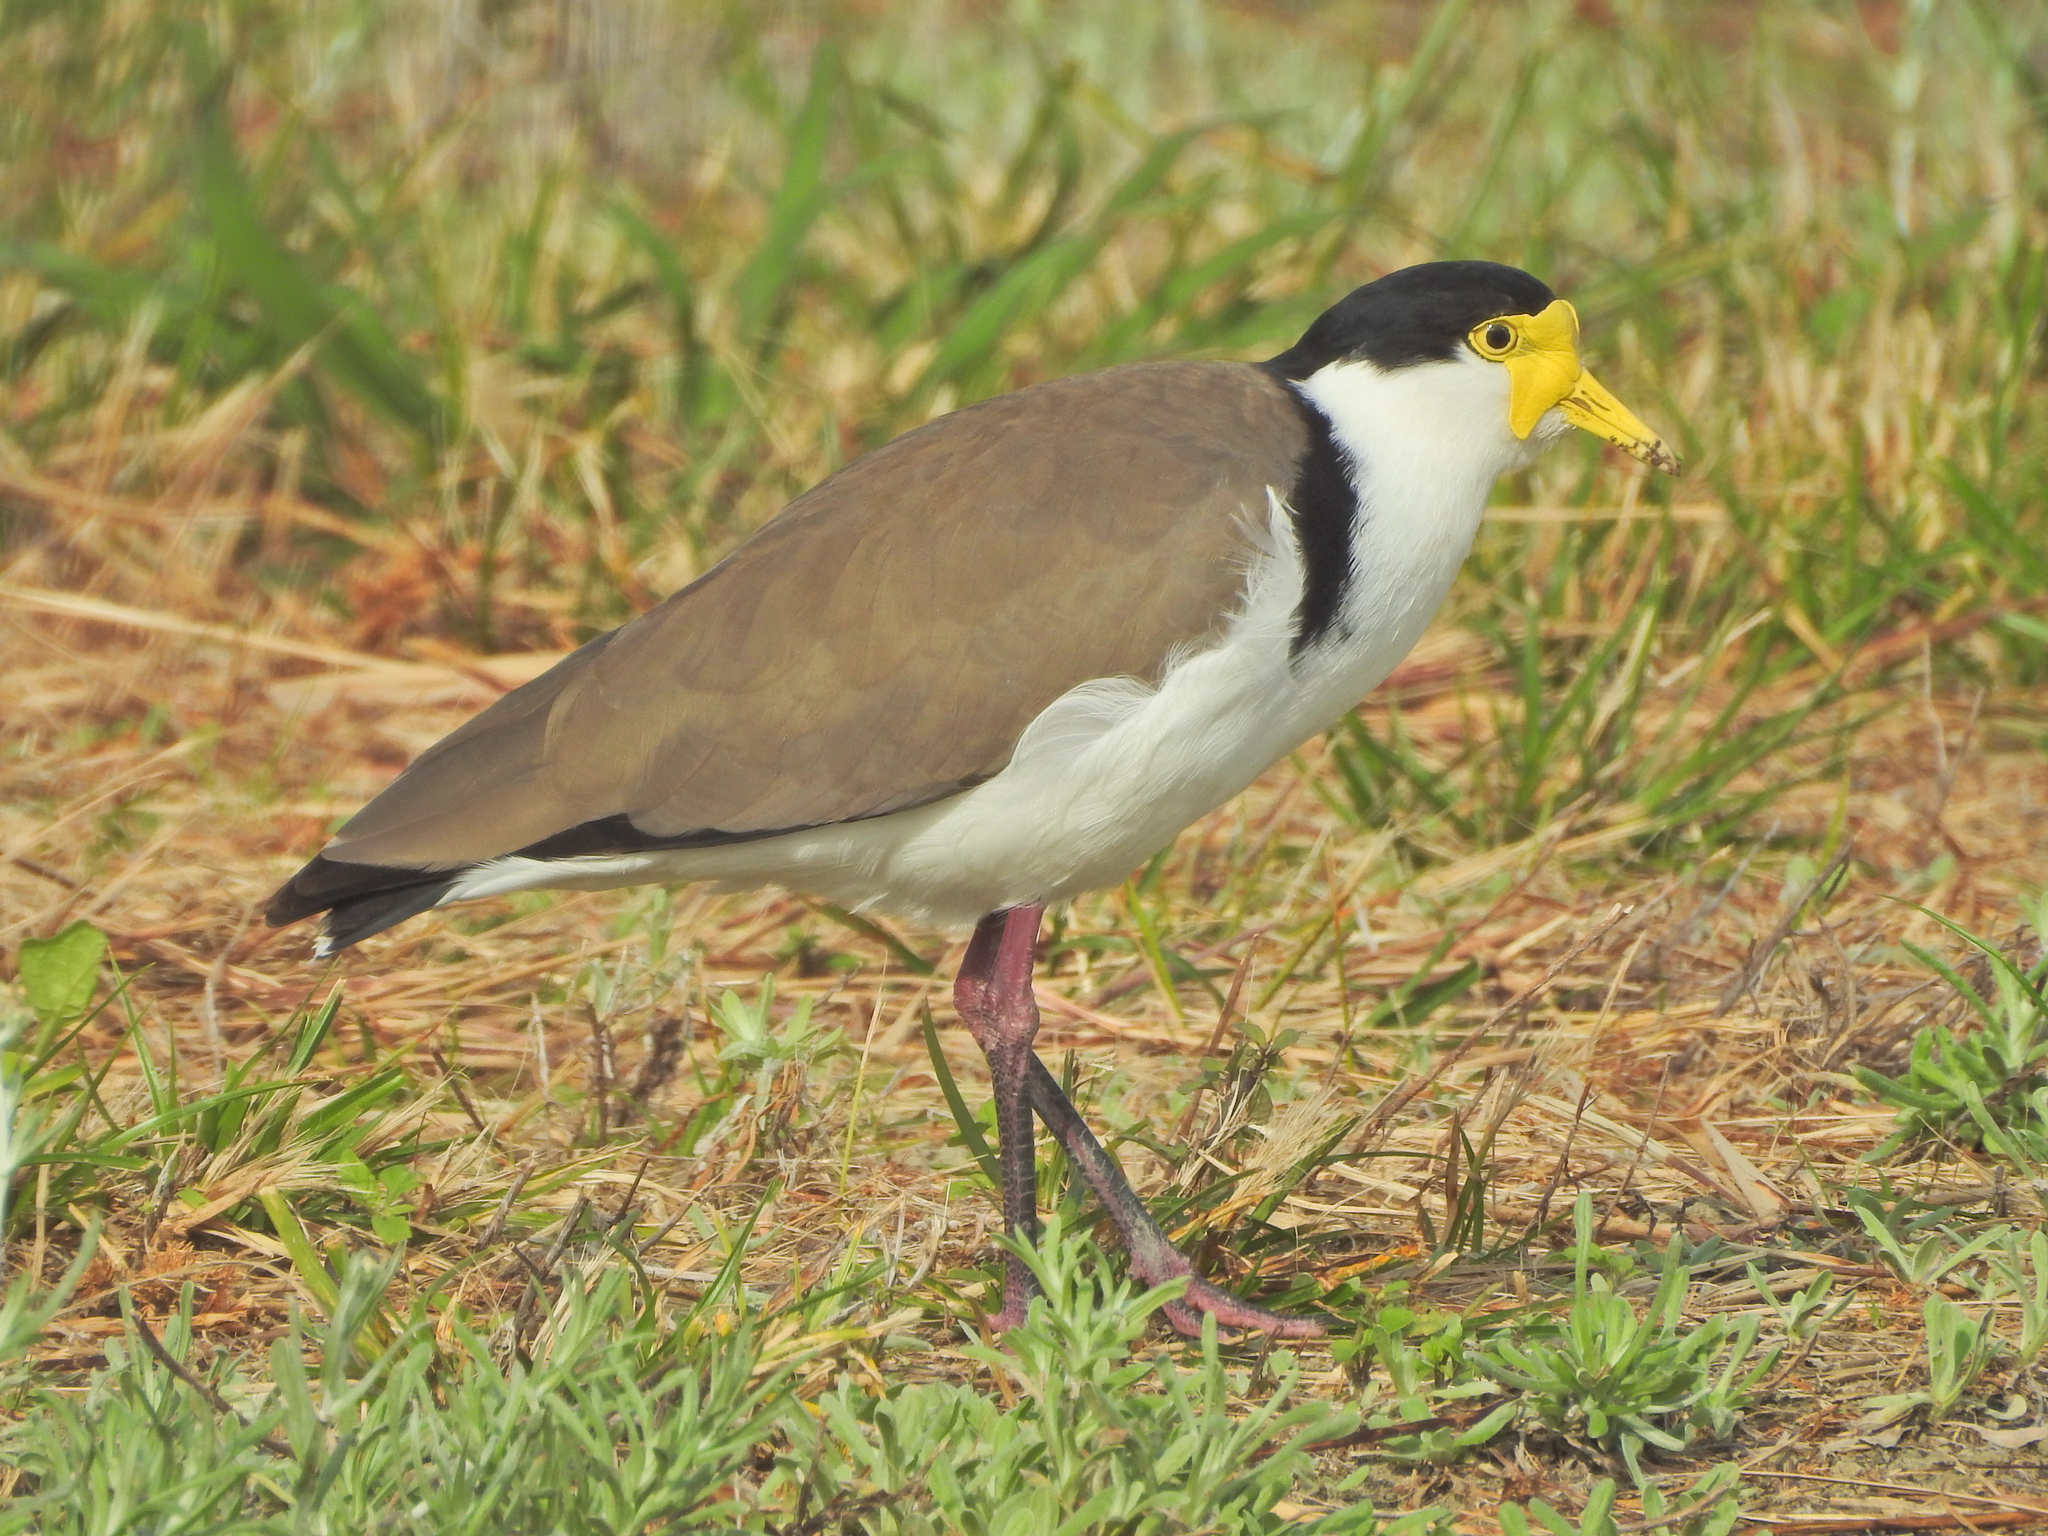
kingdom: Animalia
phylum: Chordata
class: Aves
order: Charadriiformes
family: Charadriidae
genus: Vanellus
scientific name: Vanellus miles
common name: Masked lapwing
